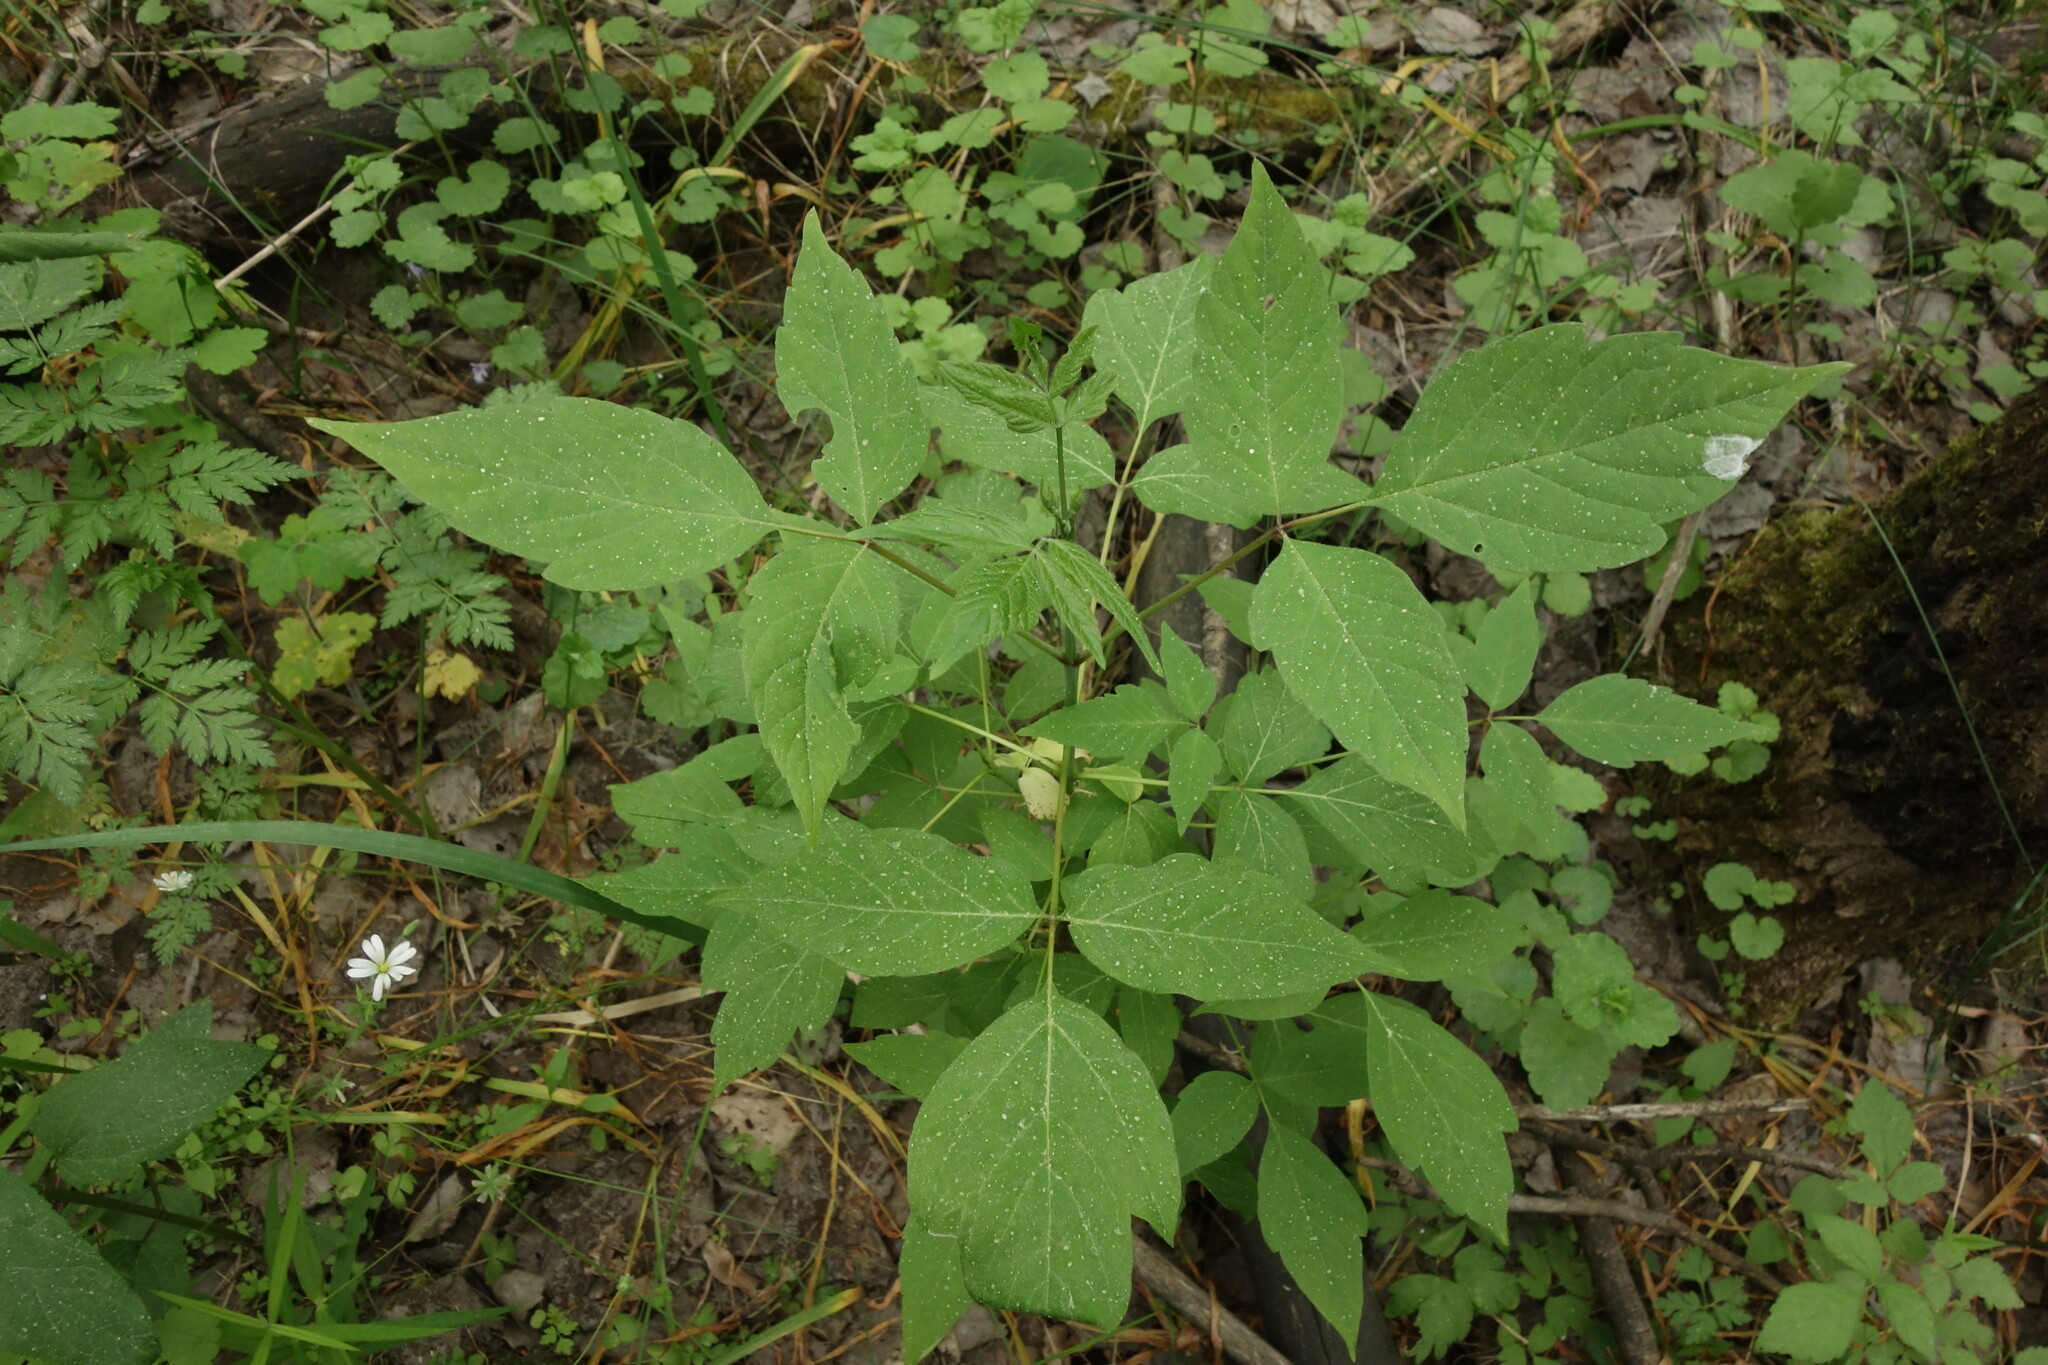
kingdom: Plantae
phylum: Tracheophyta
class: Magnoliopsida
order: Sapindales
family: Sapindaceae
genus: Acer
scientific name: Acer negundo
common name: Ashleaf maple
